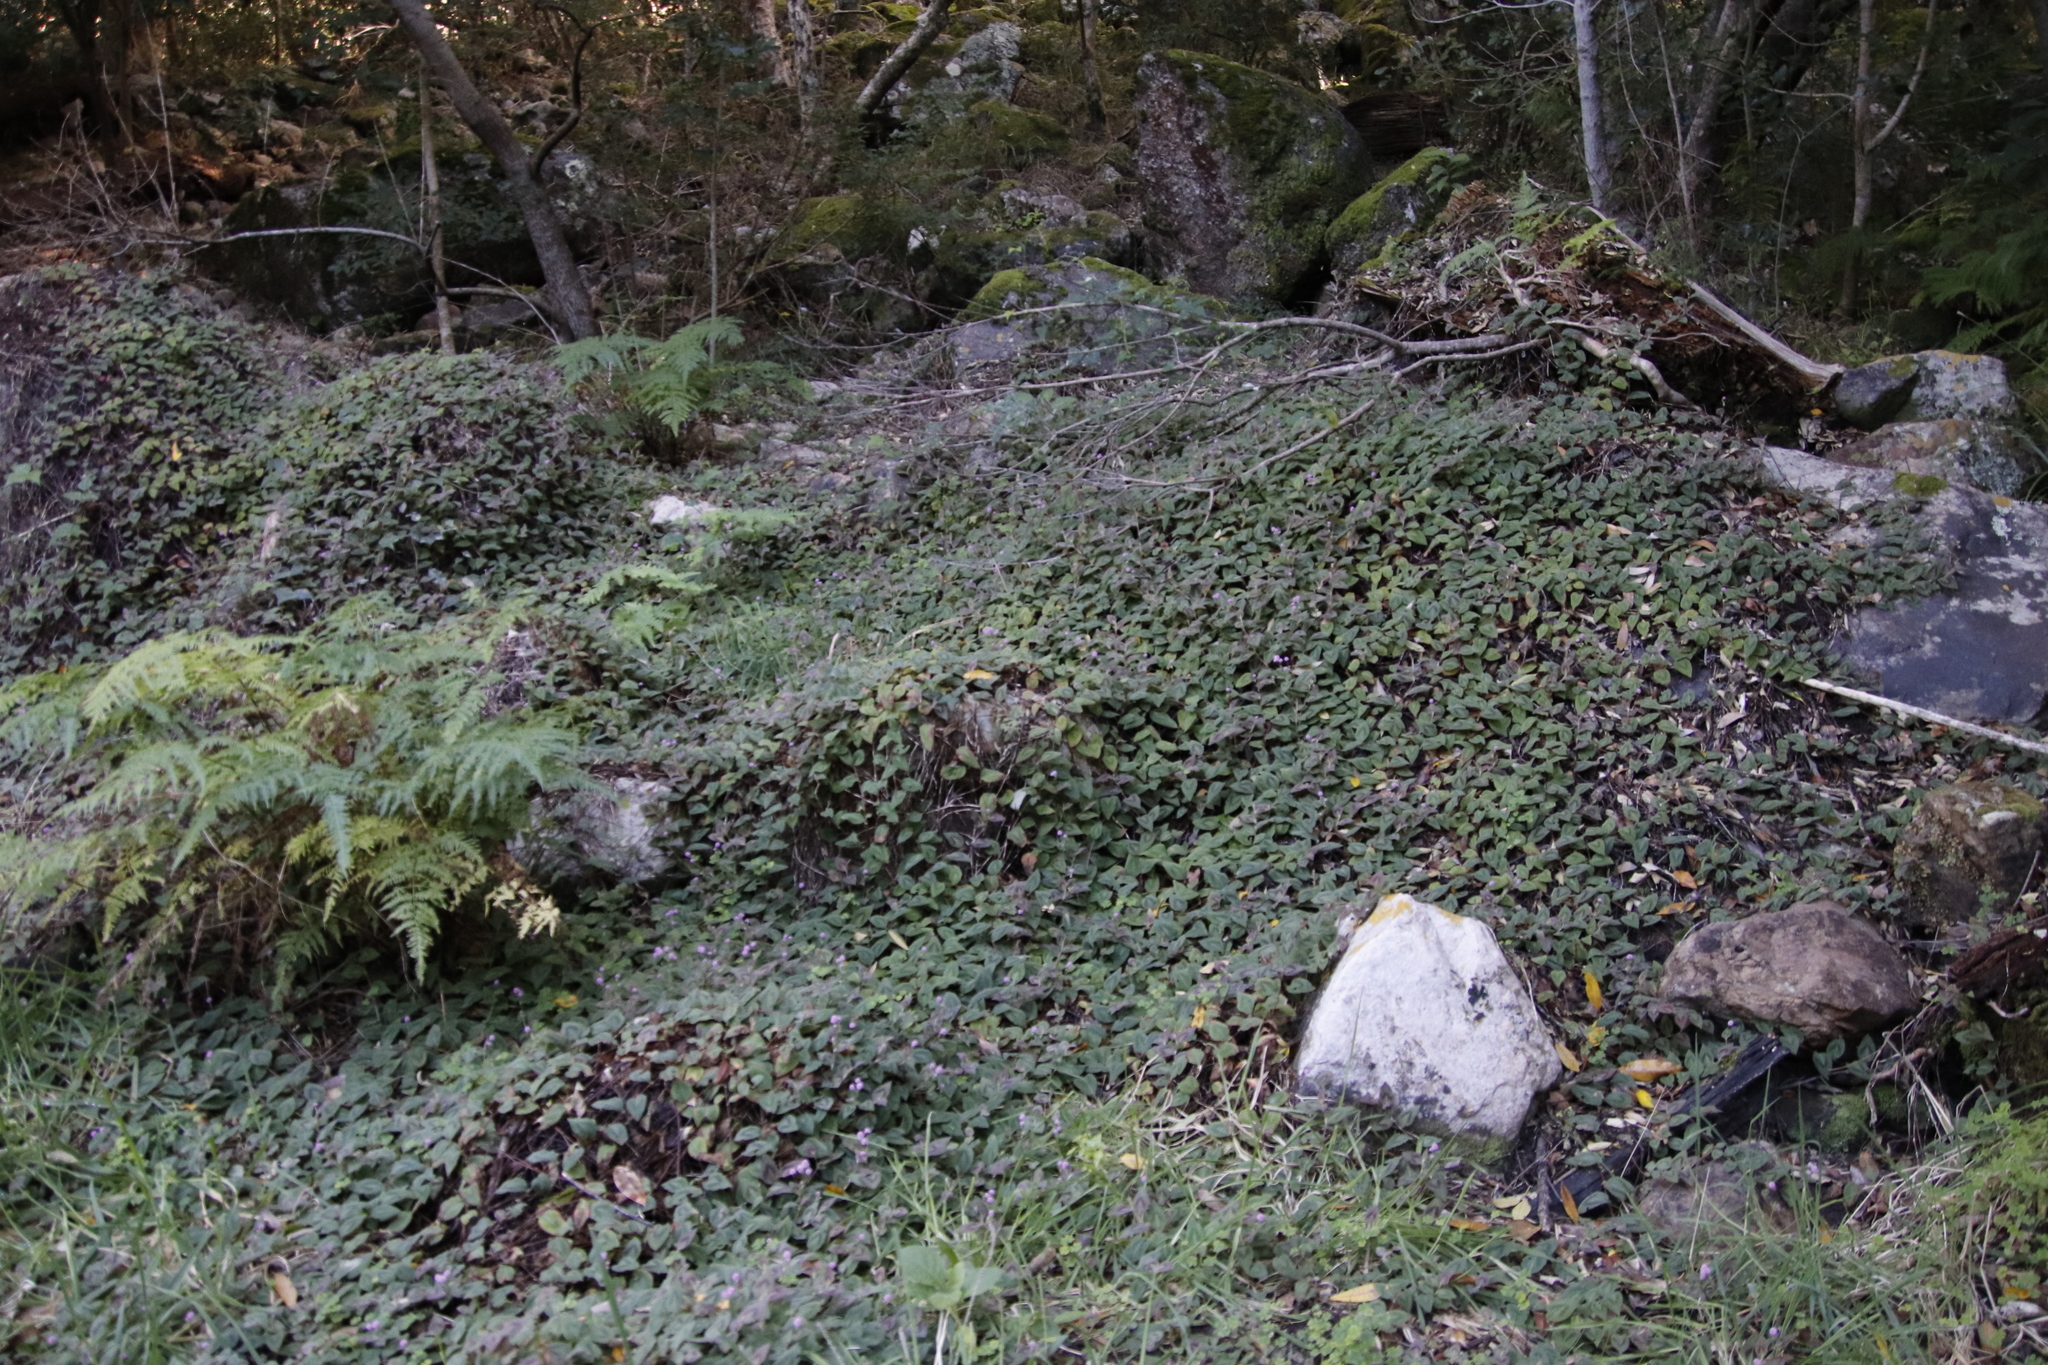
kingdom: Plantae
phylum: Tracheophyta
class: Magnoliopsida
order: Caryophyllales
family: Polygonaceae
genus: Persicaria
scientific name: Persicaria capitata
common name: Pinkhead smartweed
